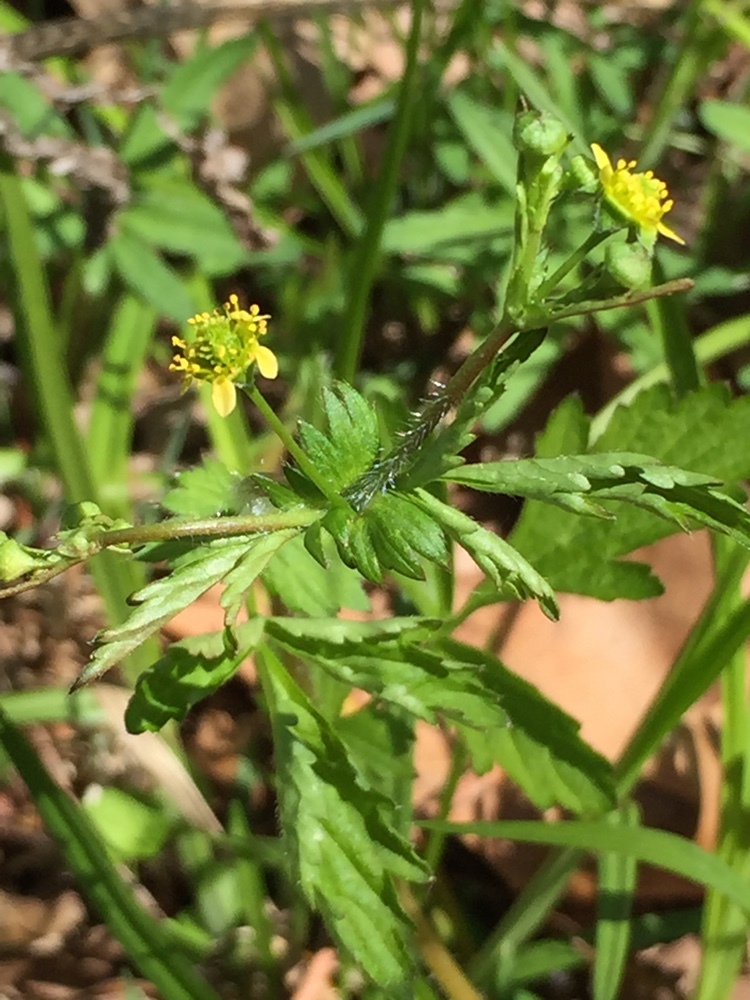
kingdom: Plantae
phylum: Tracheophyta
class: Magnoliopsida
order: Rosales
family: Rosaceae
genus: Geum
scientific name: Geum vernum
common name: Spring avens
